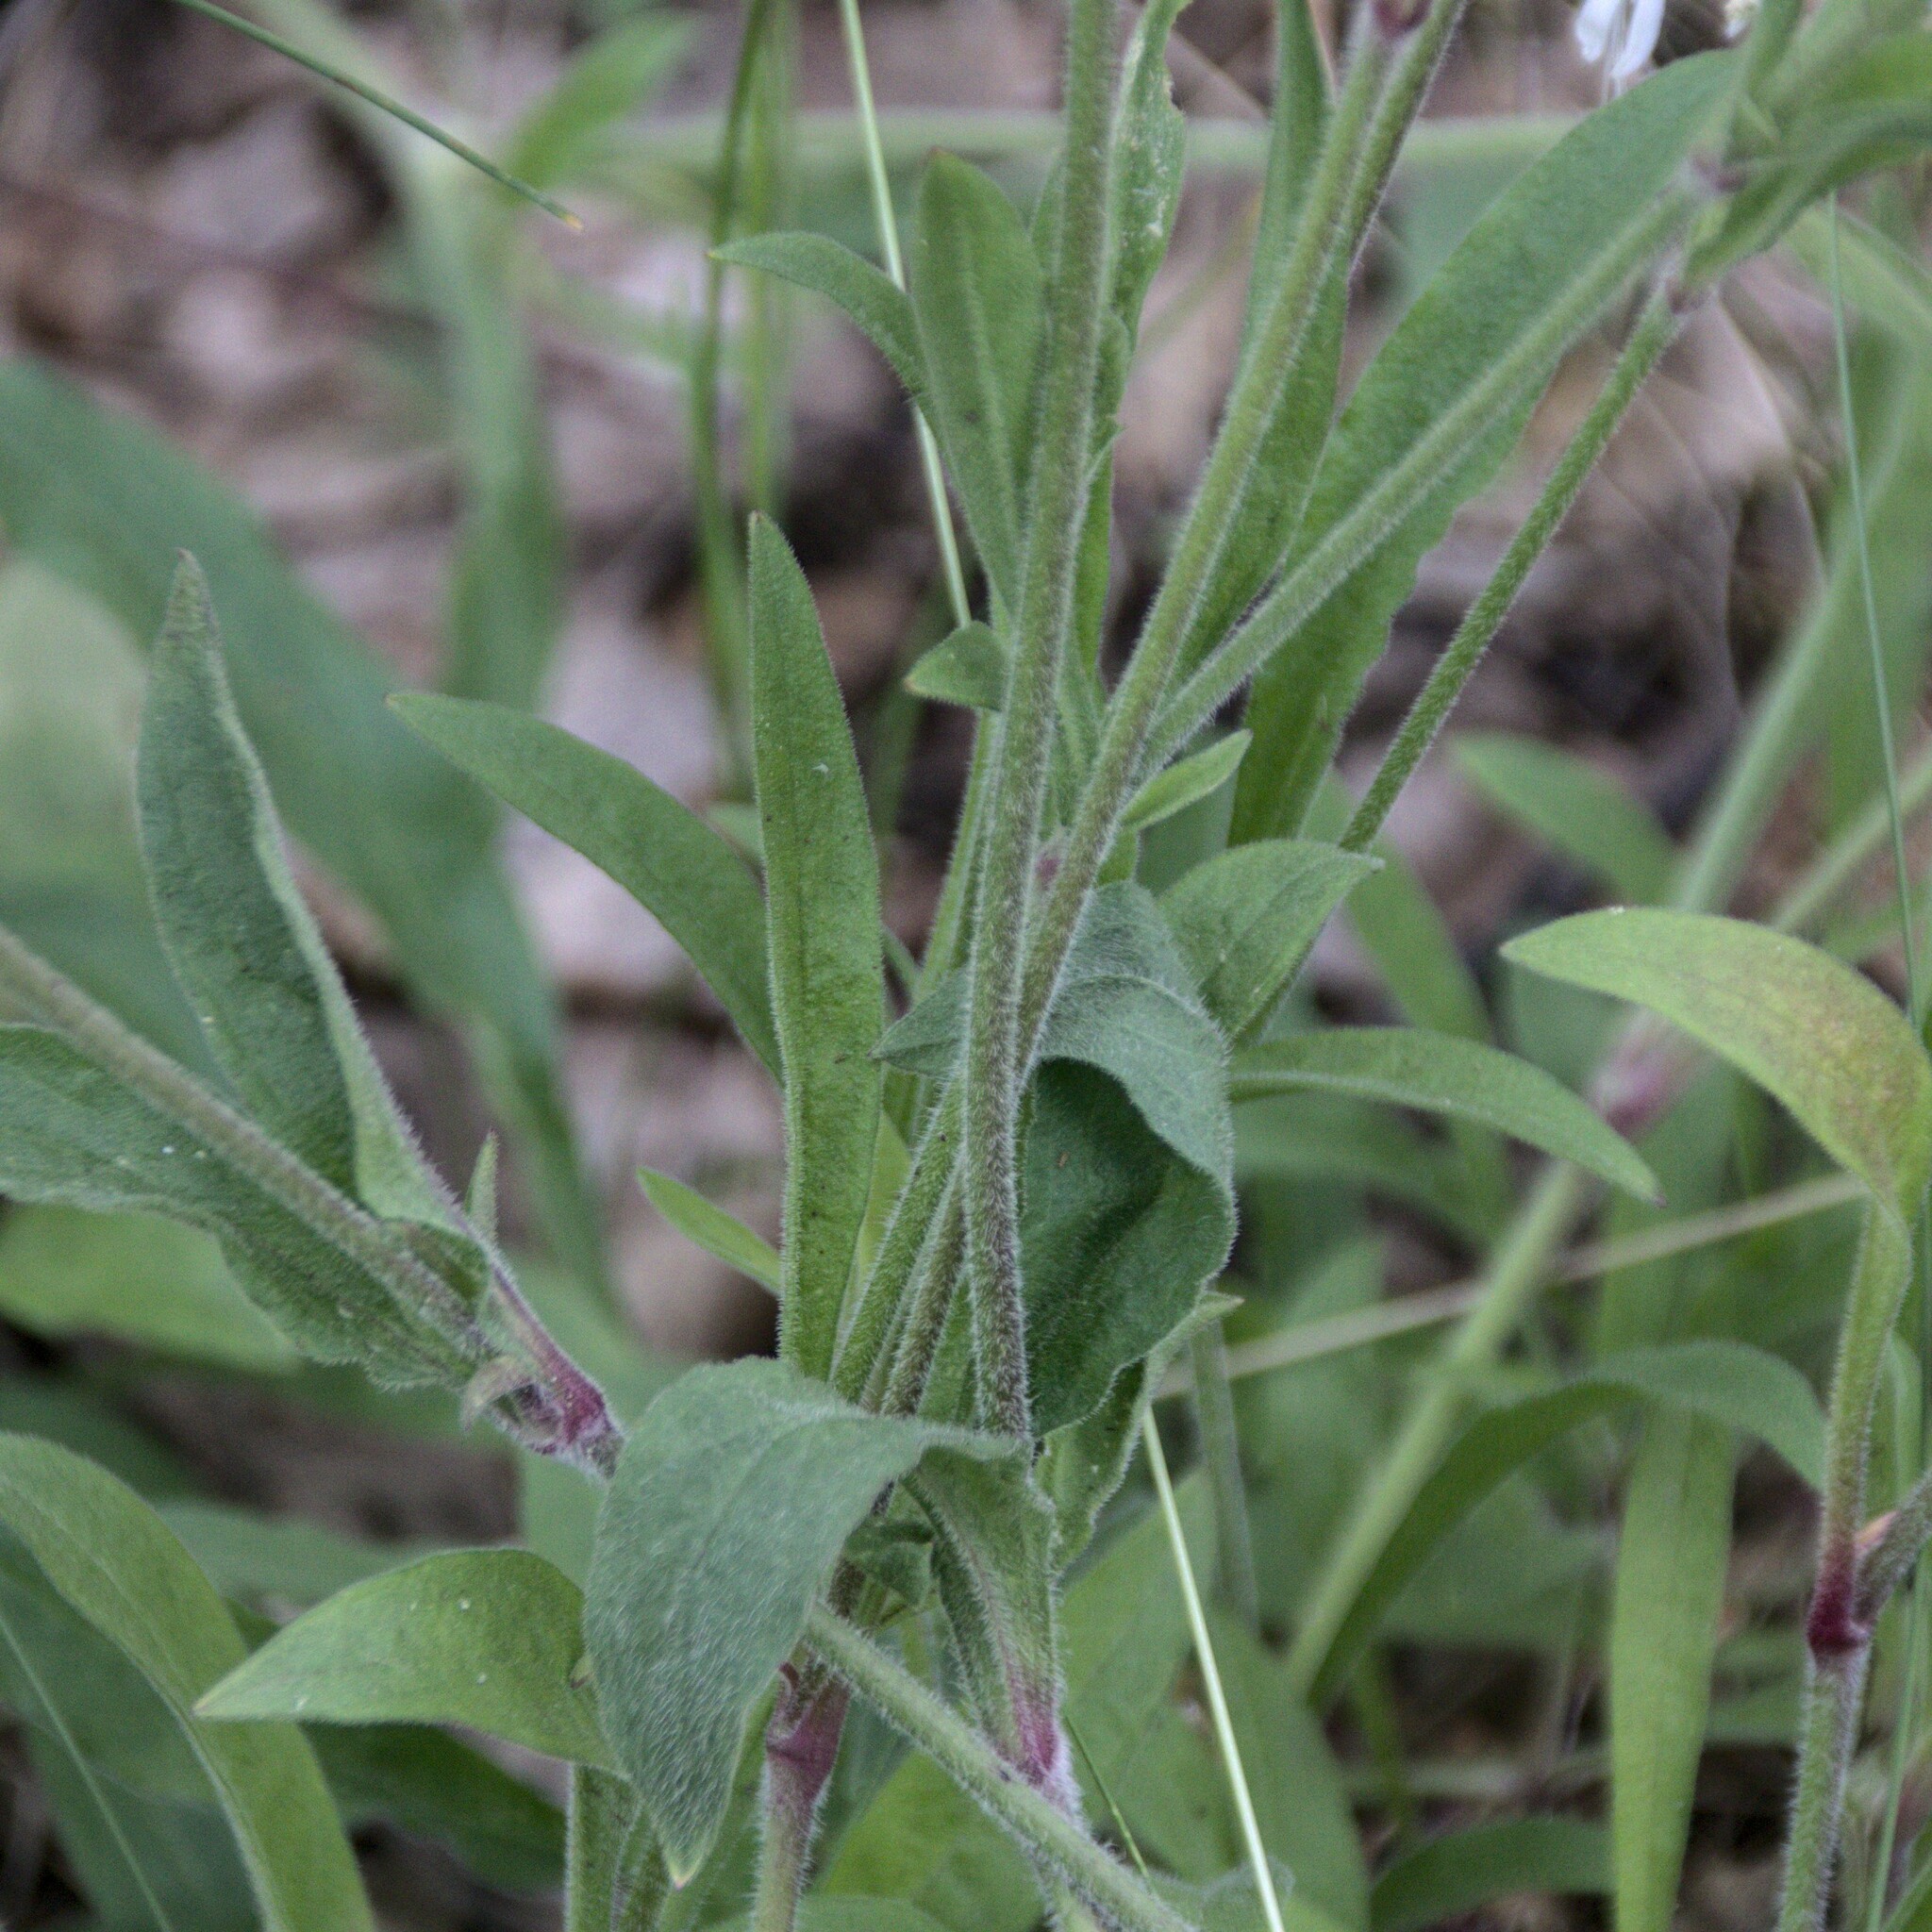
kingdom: Plantae
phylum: Tracheophyta
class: Magnoliopsida
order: Caryophyllales
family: Caryophyllaceae
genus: Silene
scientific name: Silene nutans
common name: Nottingham catchfly
